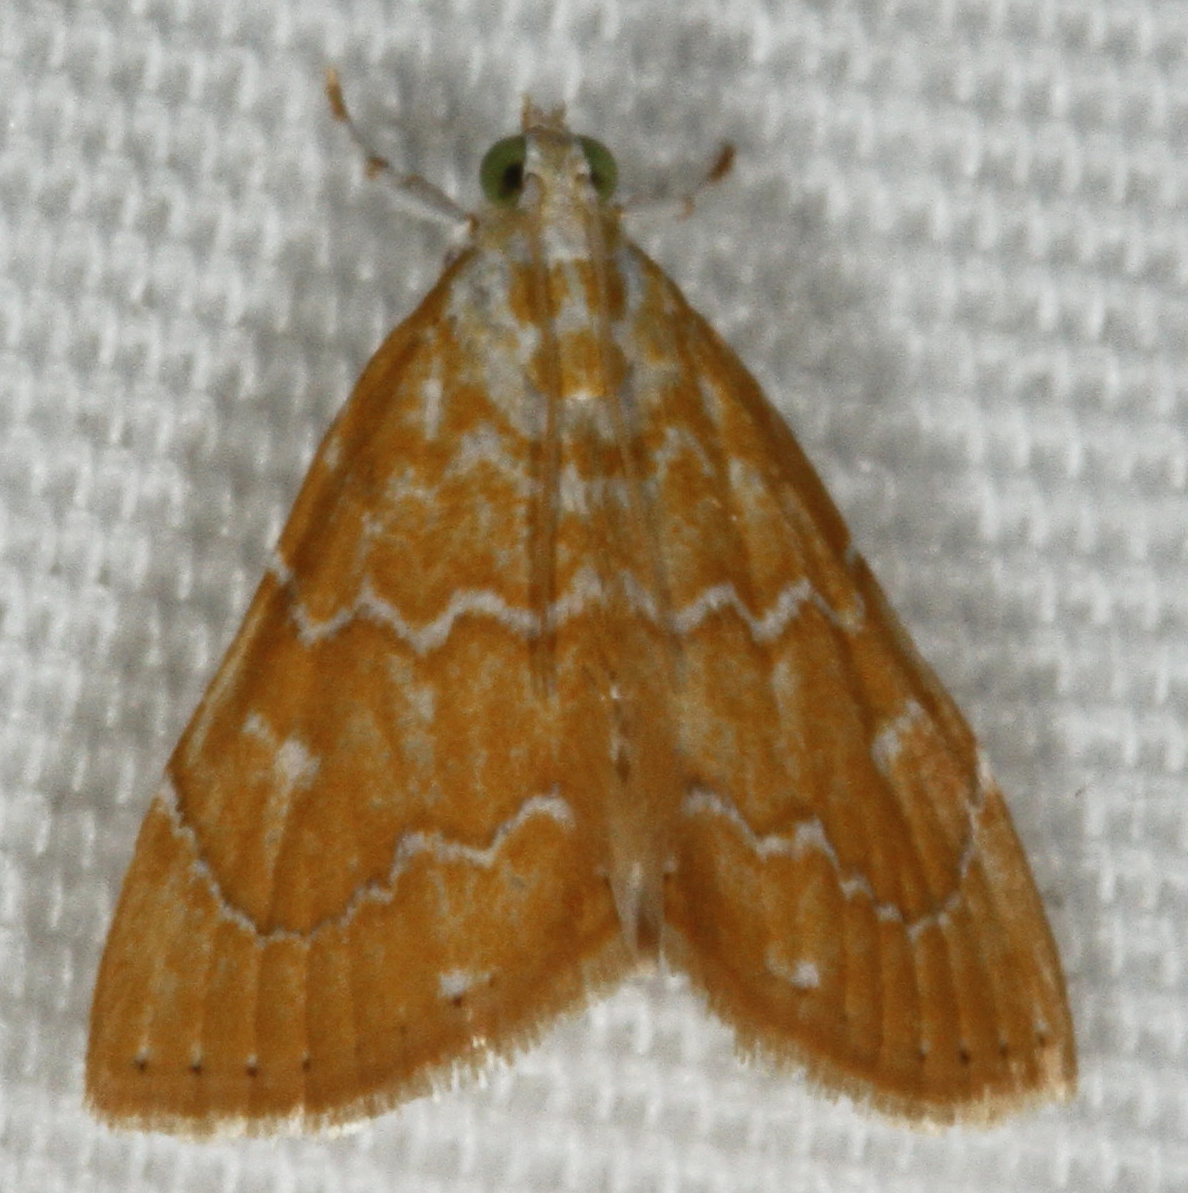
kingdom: Animalia
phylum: Arthropoda
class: Insecta
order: Lepidoptera
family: Crambidae
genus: Glaphyria
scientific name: Glaphyria sesquistrialis
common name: White-roped glaphyria
